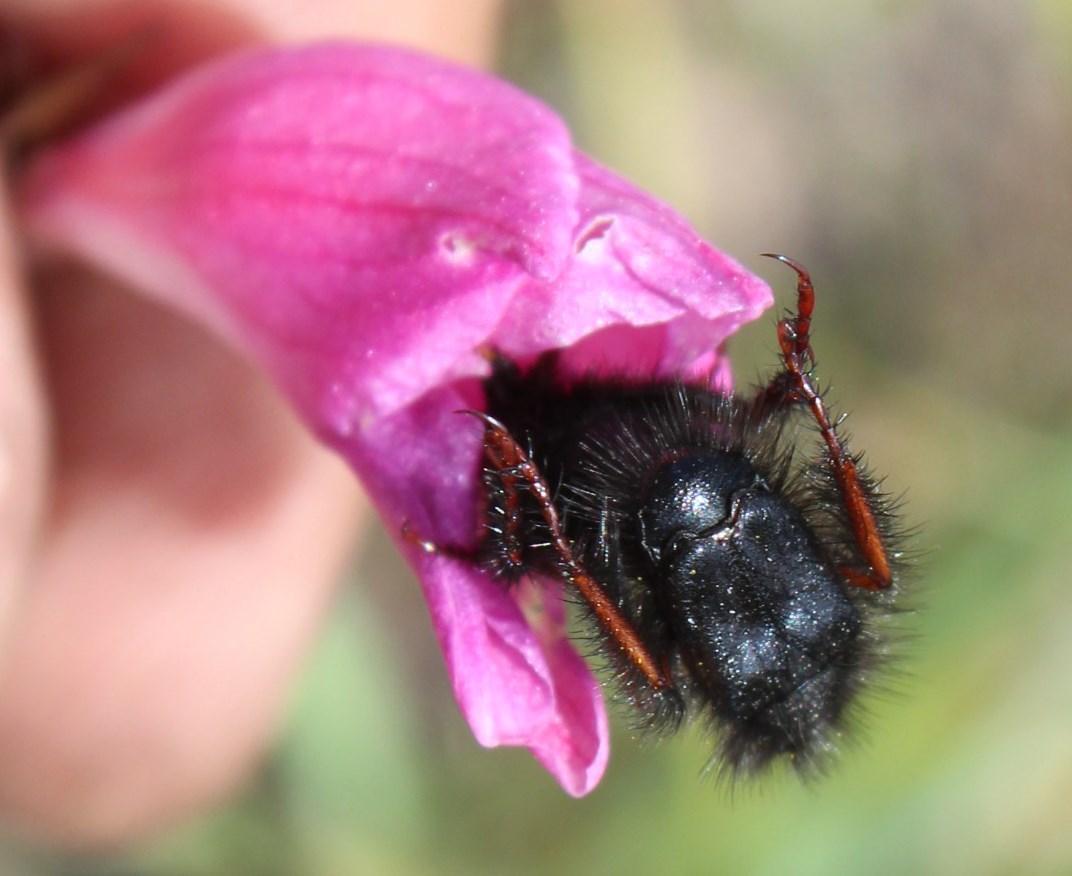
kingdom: Plantae
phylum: Tracheophyta
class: Liliopsida
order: Asparagales
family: Iridaceae
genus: Gladiolus
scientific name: Gladiolus hirsutus
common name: Small pink afrikaner
